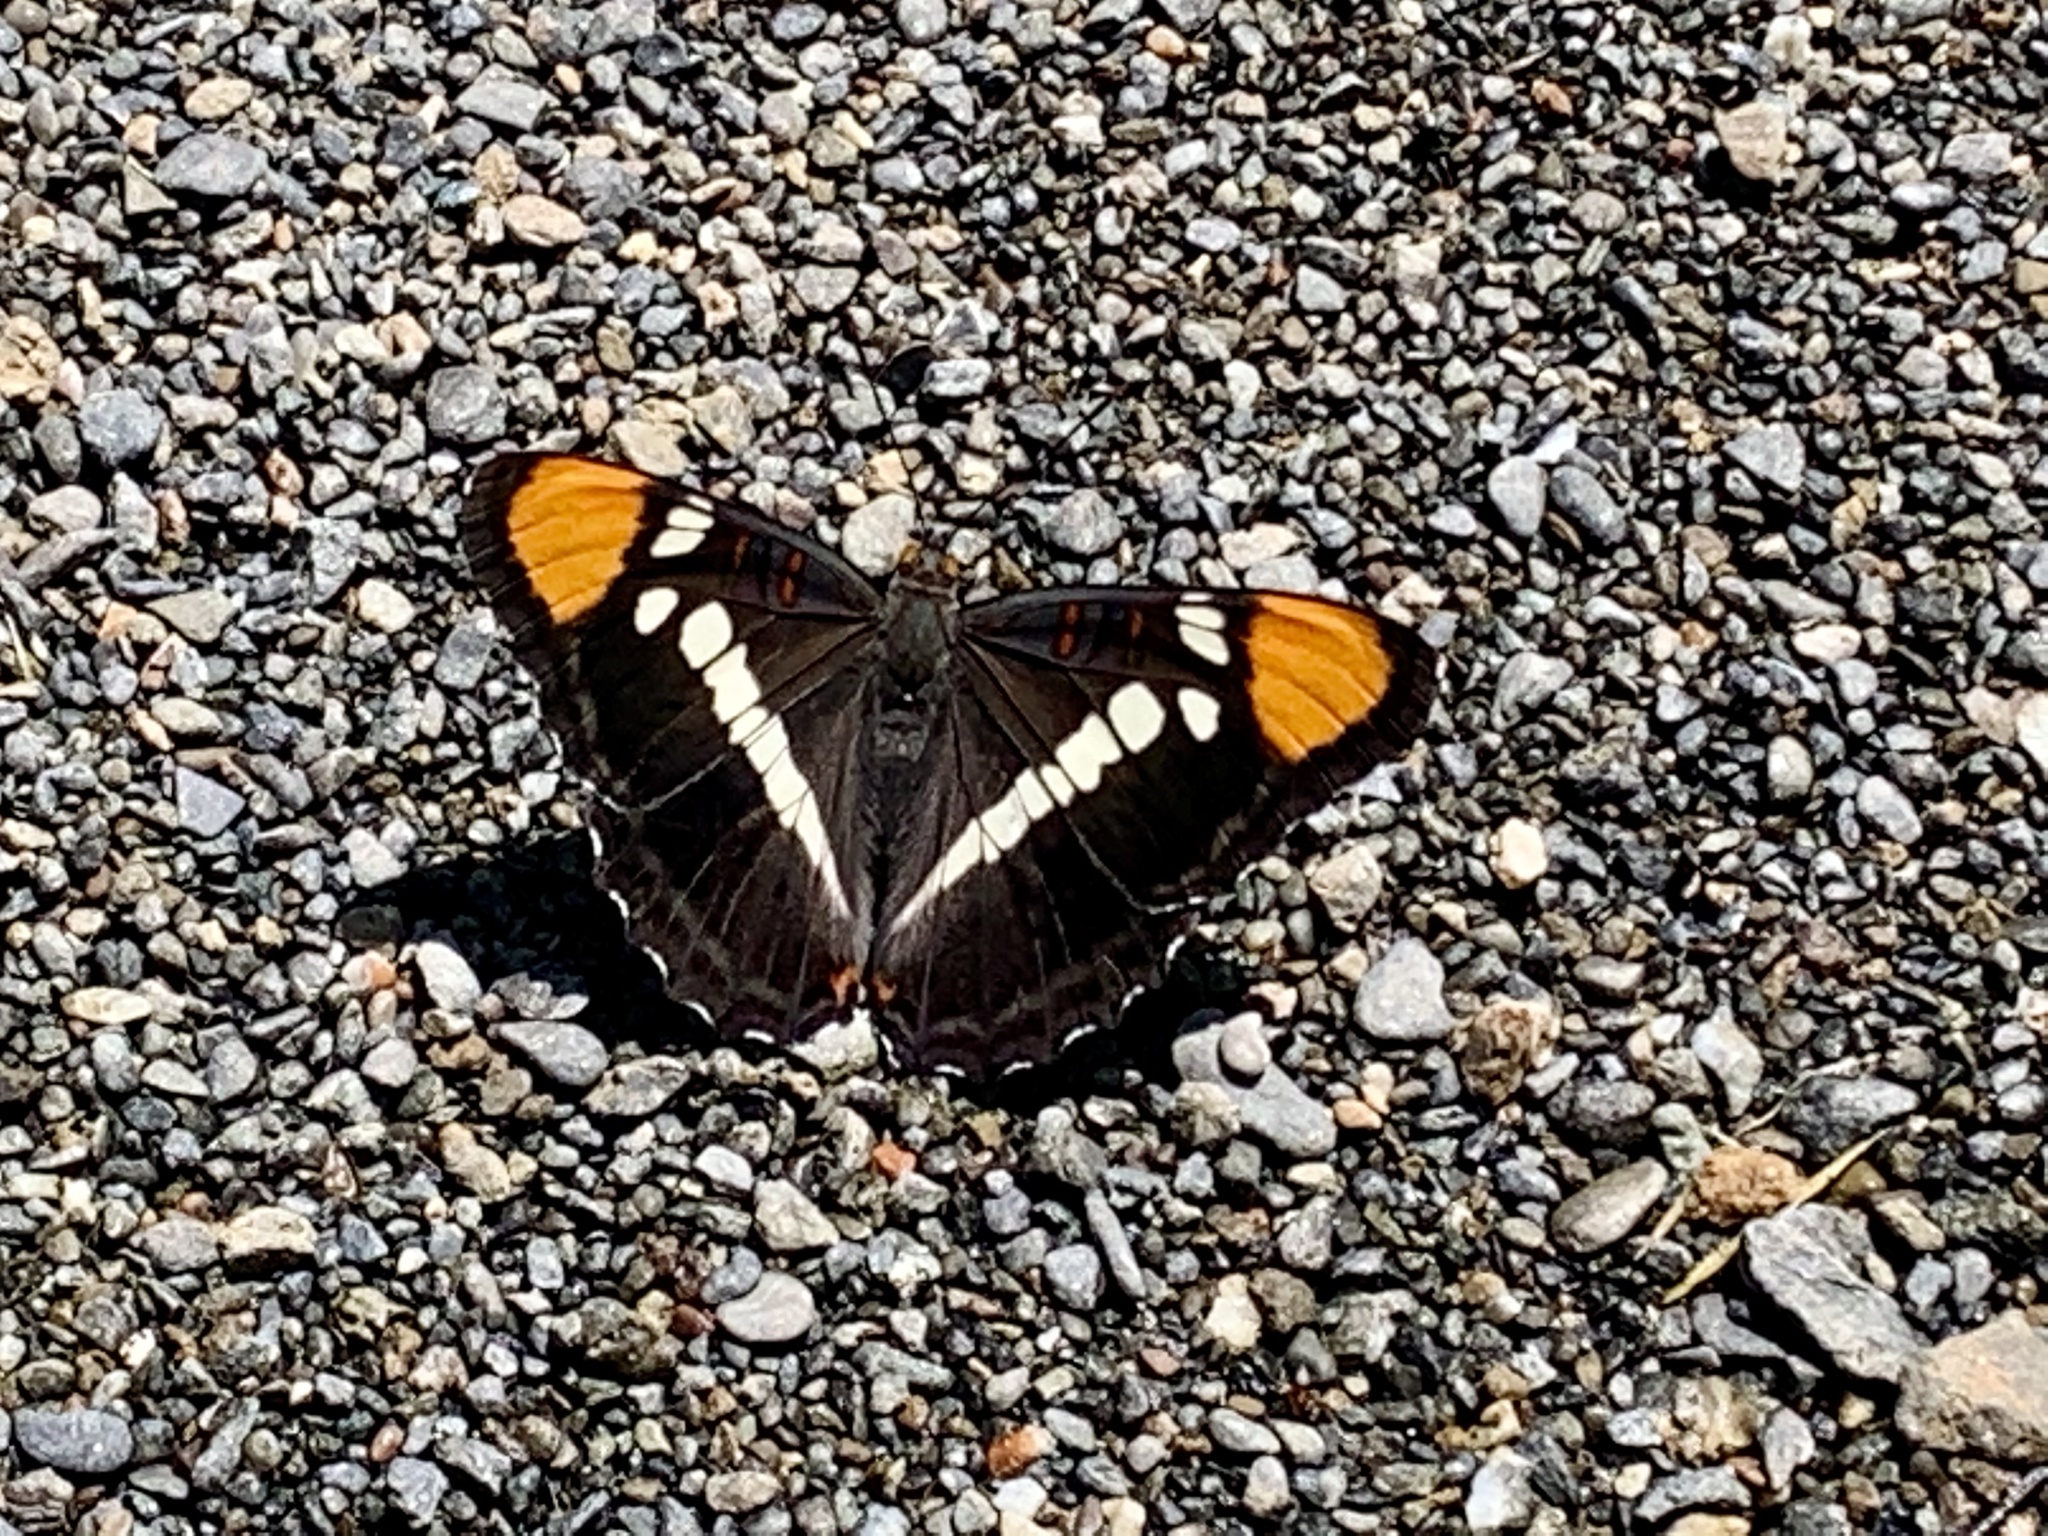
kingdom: Animalia
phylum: Arthropoda
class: Insecta
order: Lepidoptera
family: Nymphalidae
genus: Limenitis
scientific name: Limenitis bredowii
